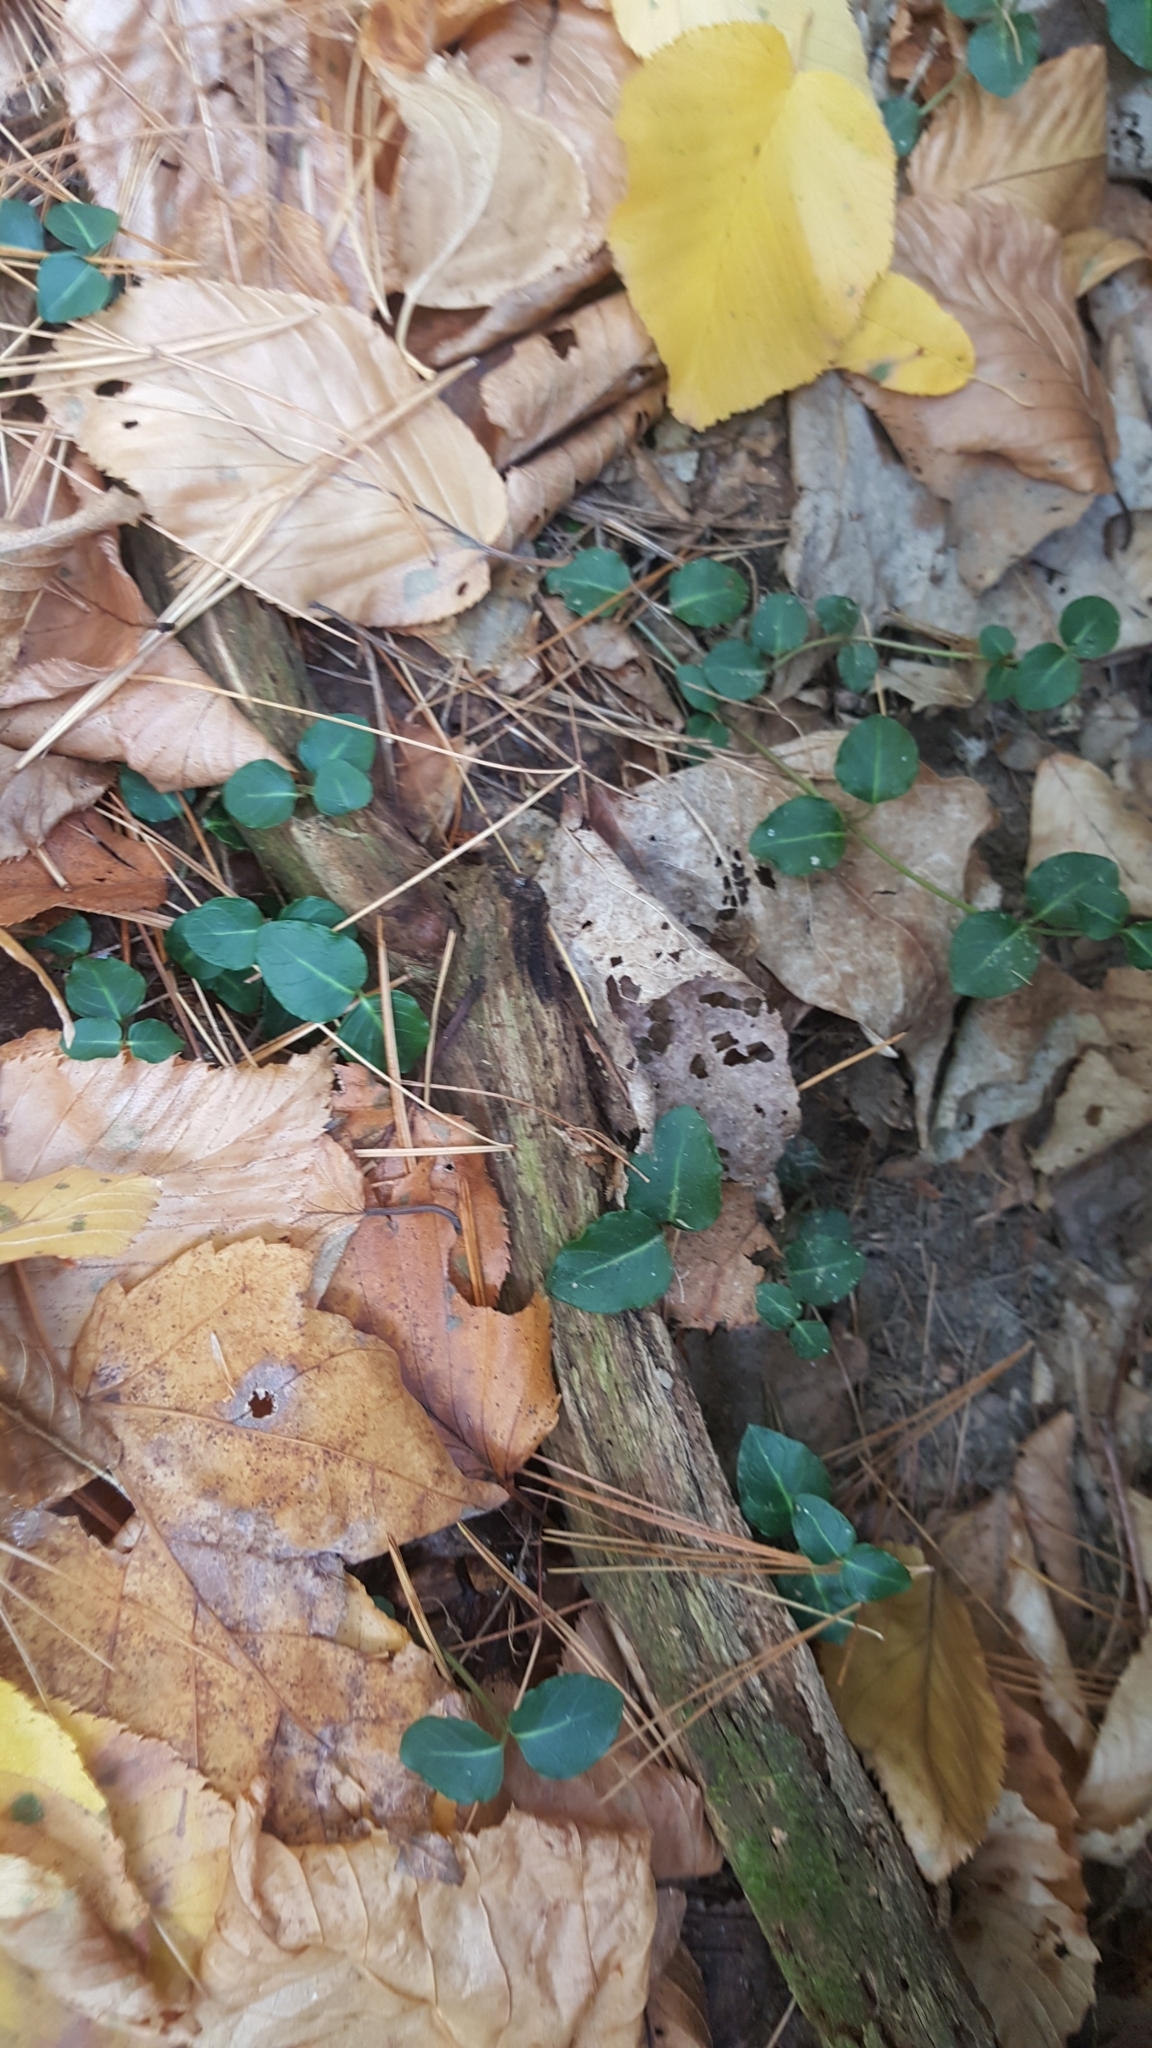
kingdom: Plantae
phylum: Tracheophyta
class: Magnoliopsida
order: Gentianales
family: Rubiaceae
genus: Mitchella
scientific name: Mitchella repens
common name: Partridge-berry
